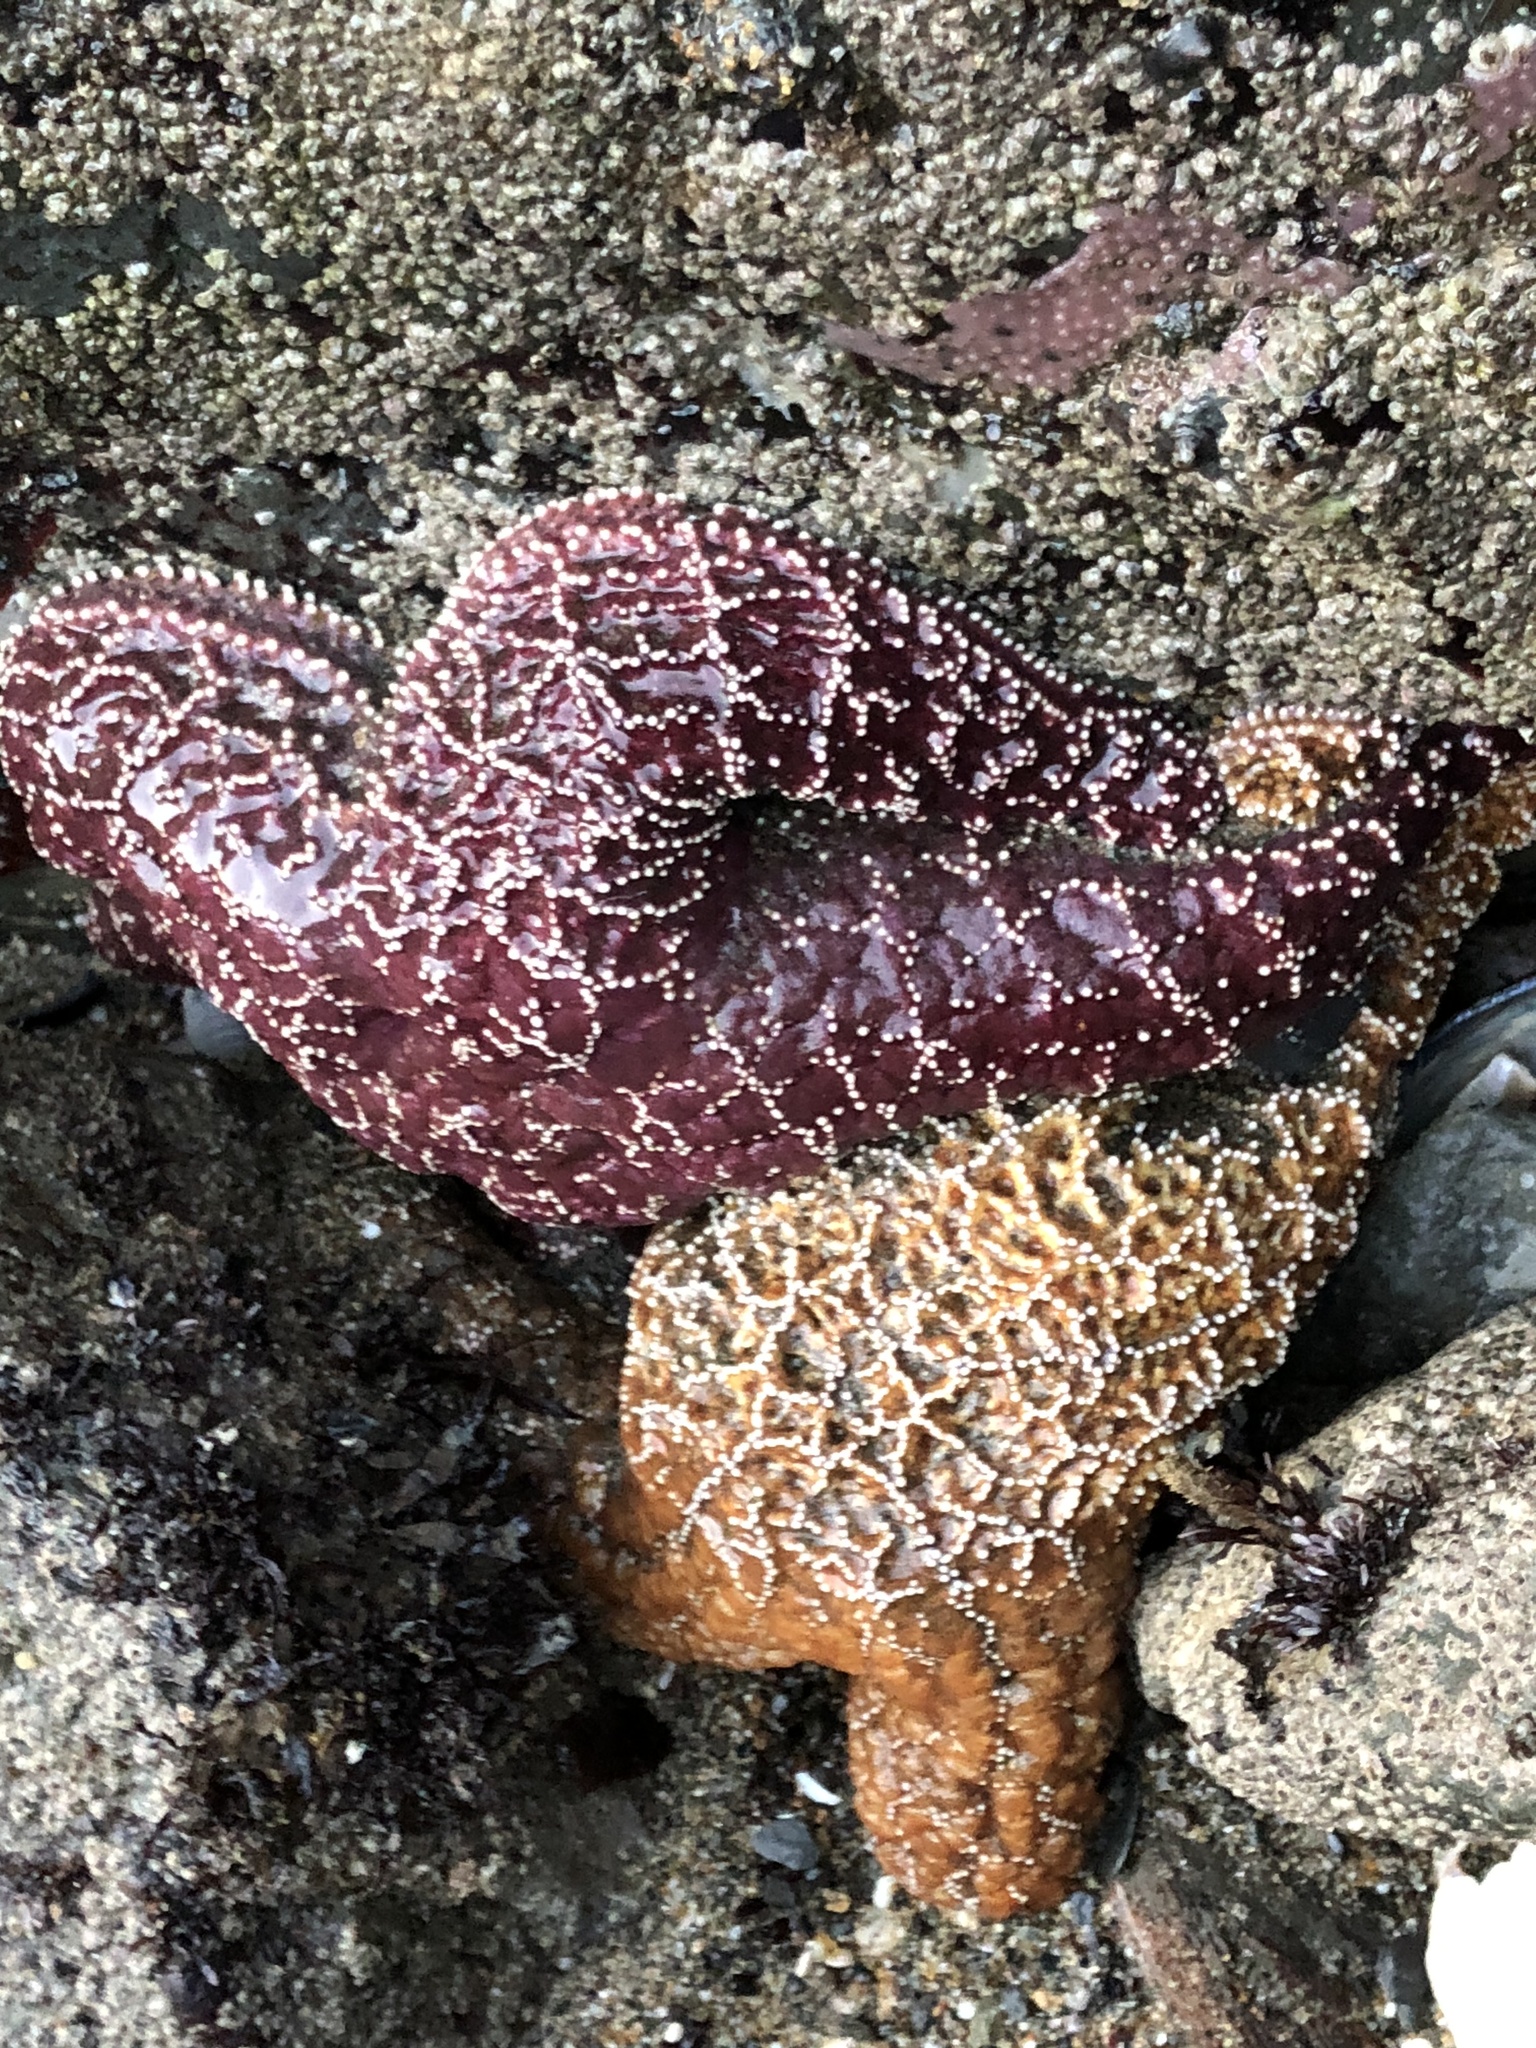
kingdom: Animalia
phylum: Echinodermata
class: Asteroidea
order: Forcipulatida
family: Asteriidae
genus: Pisaster
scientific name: Pisaster ochraceus
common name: Ochre stars
